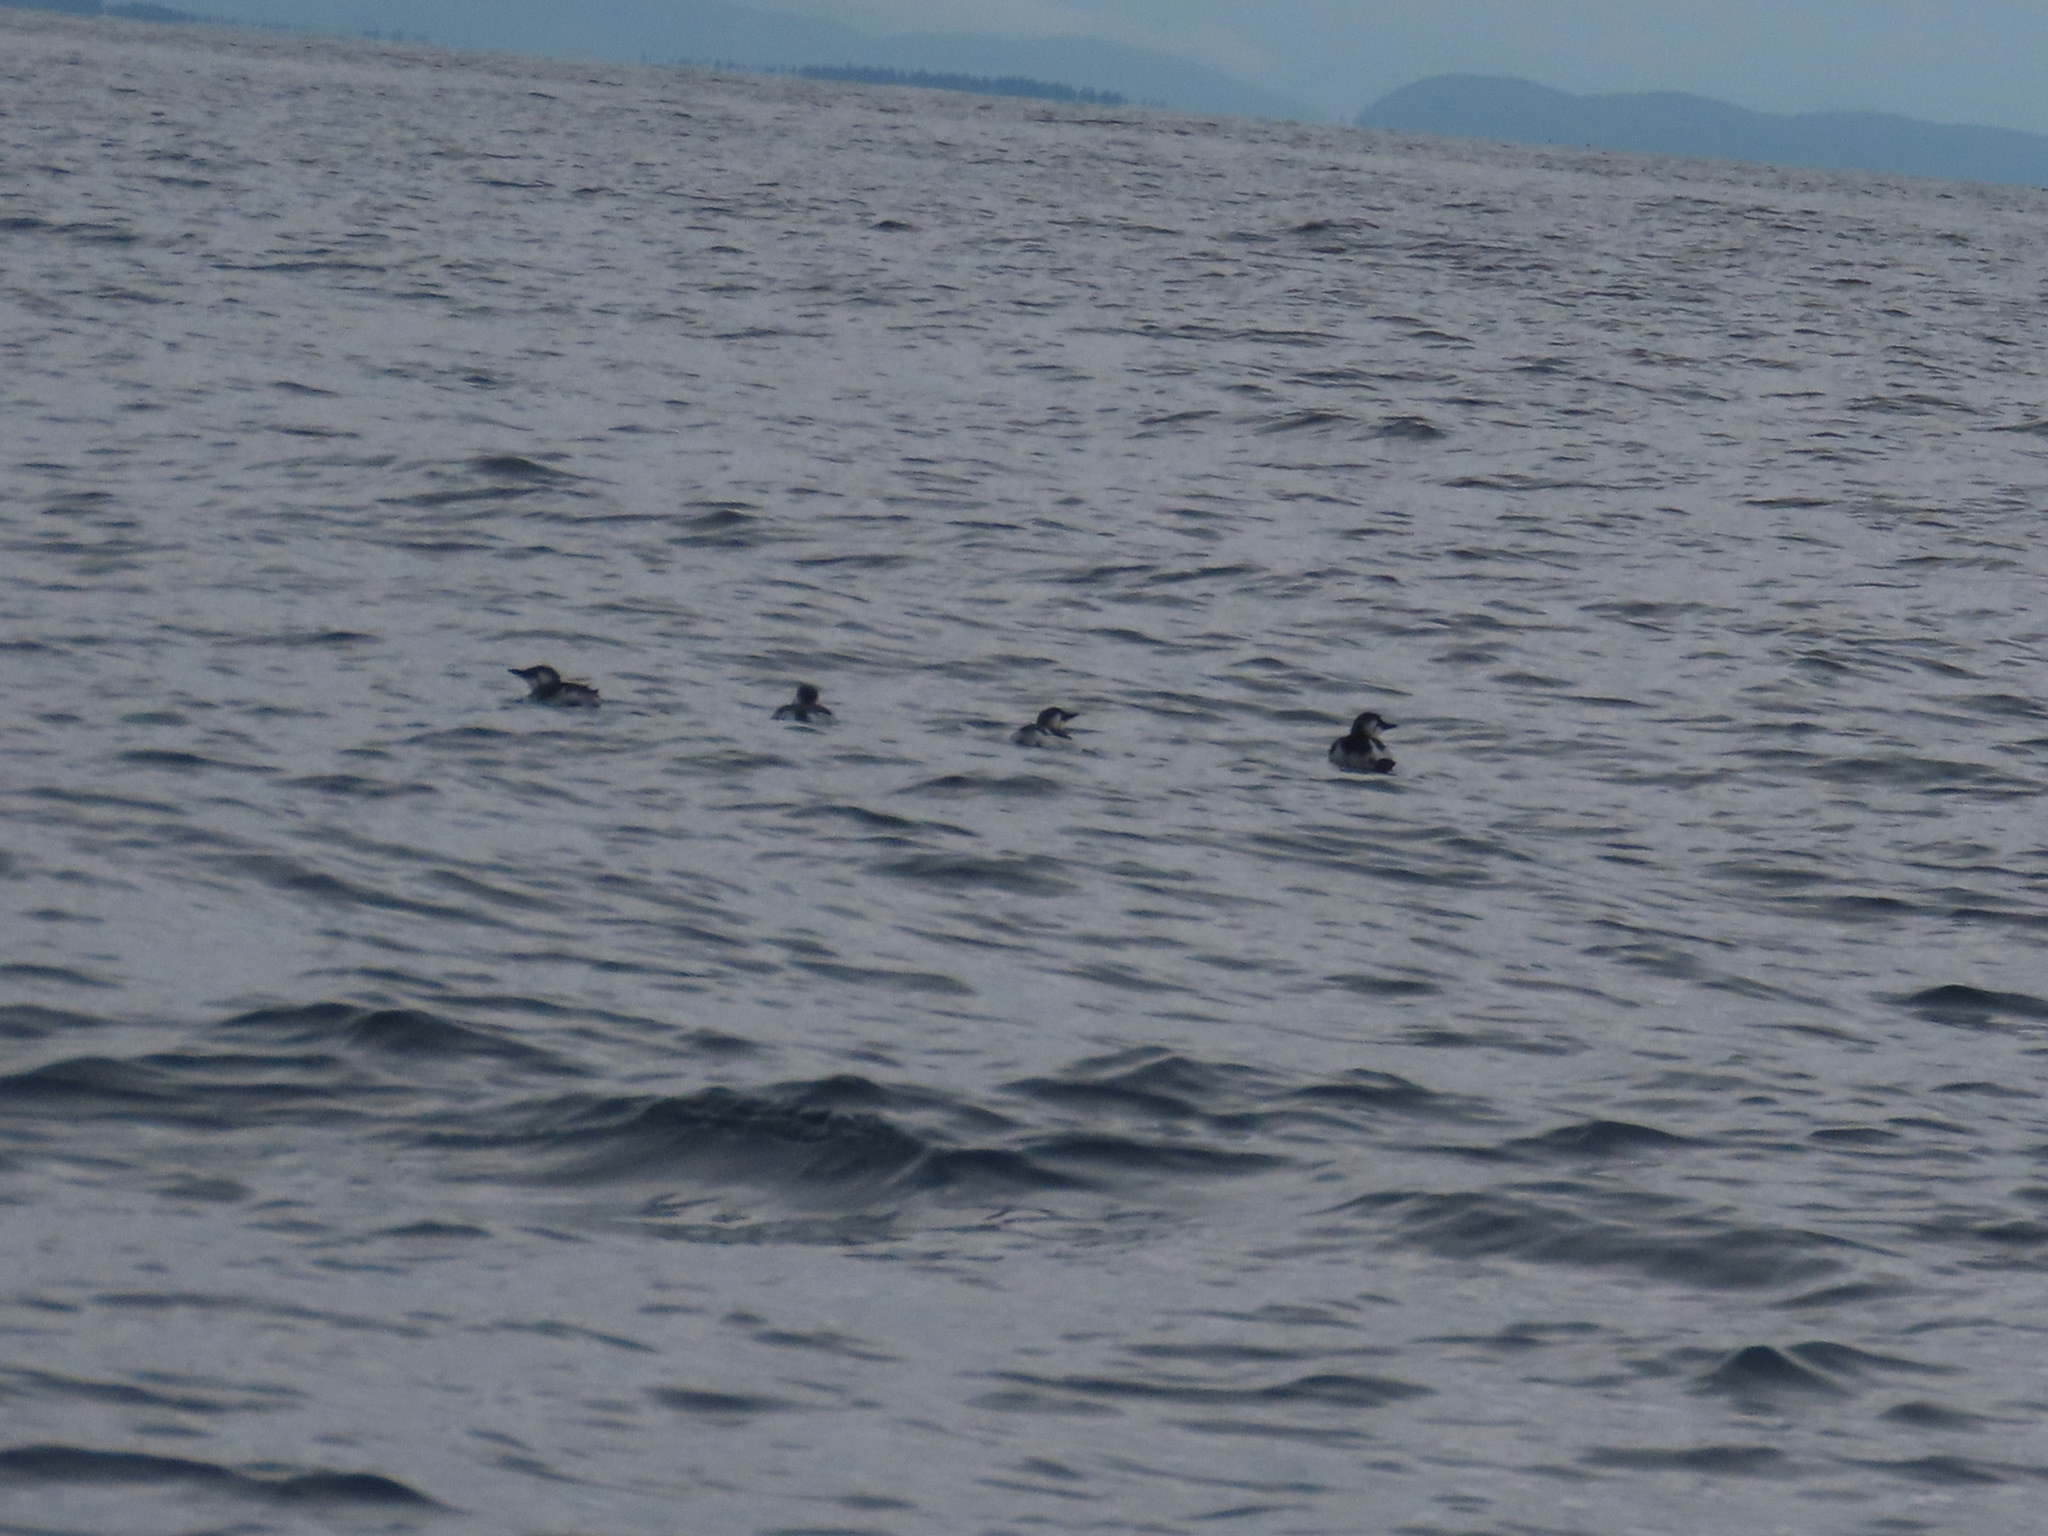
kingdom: Animalia
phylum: Chordata
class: Aves
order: Charadriiformes
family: Alcidae
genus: Uria
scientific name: Uria aalge
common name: Common murre
